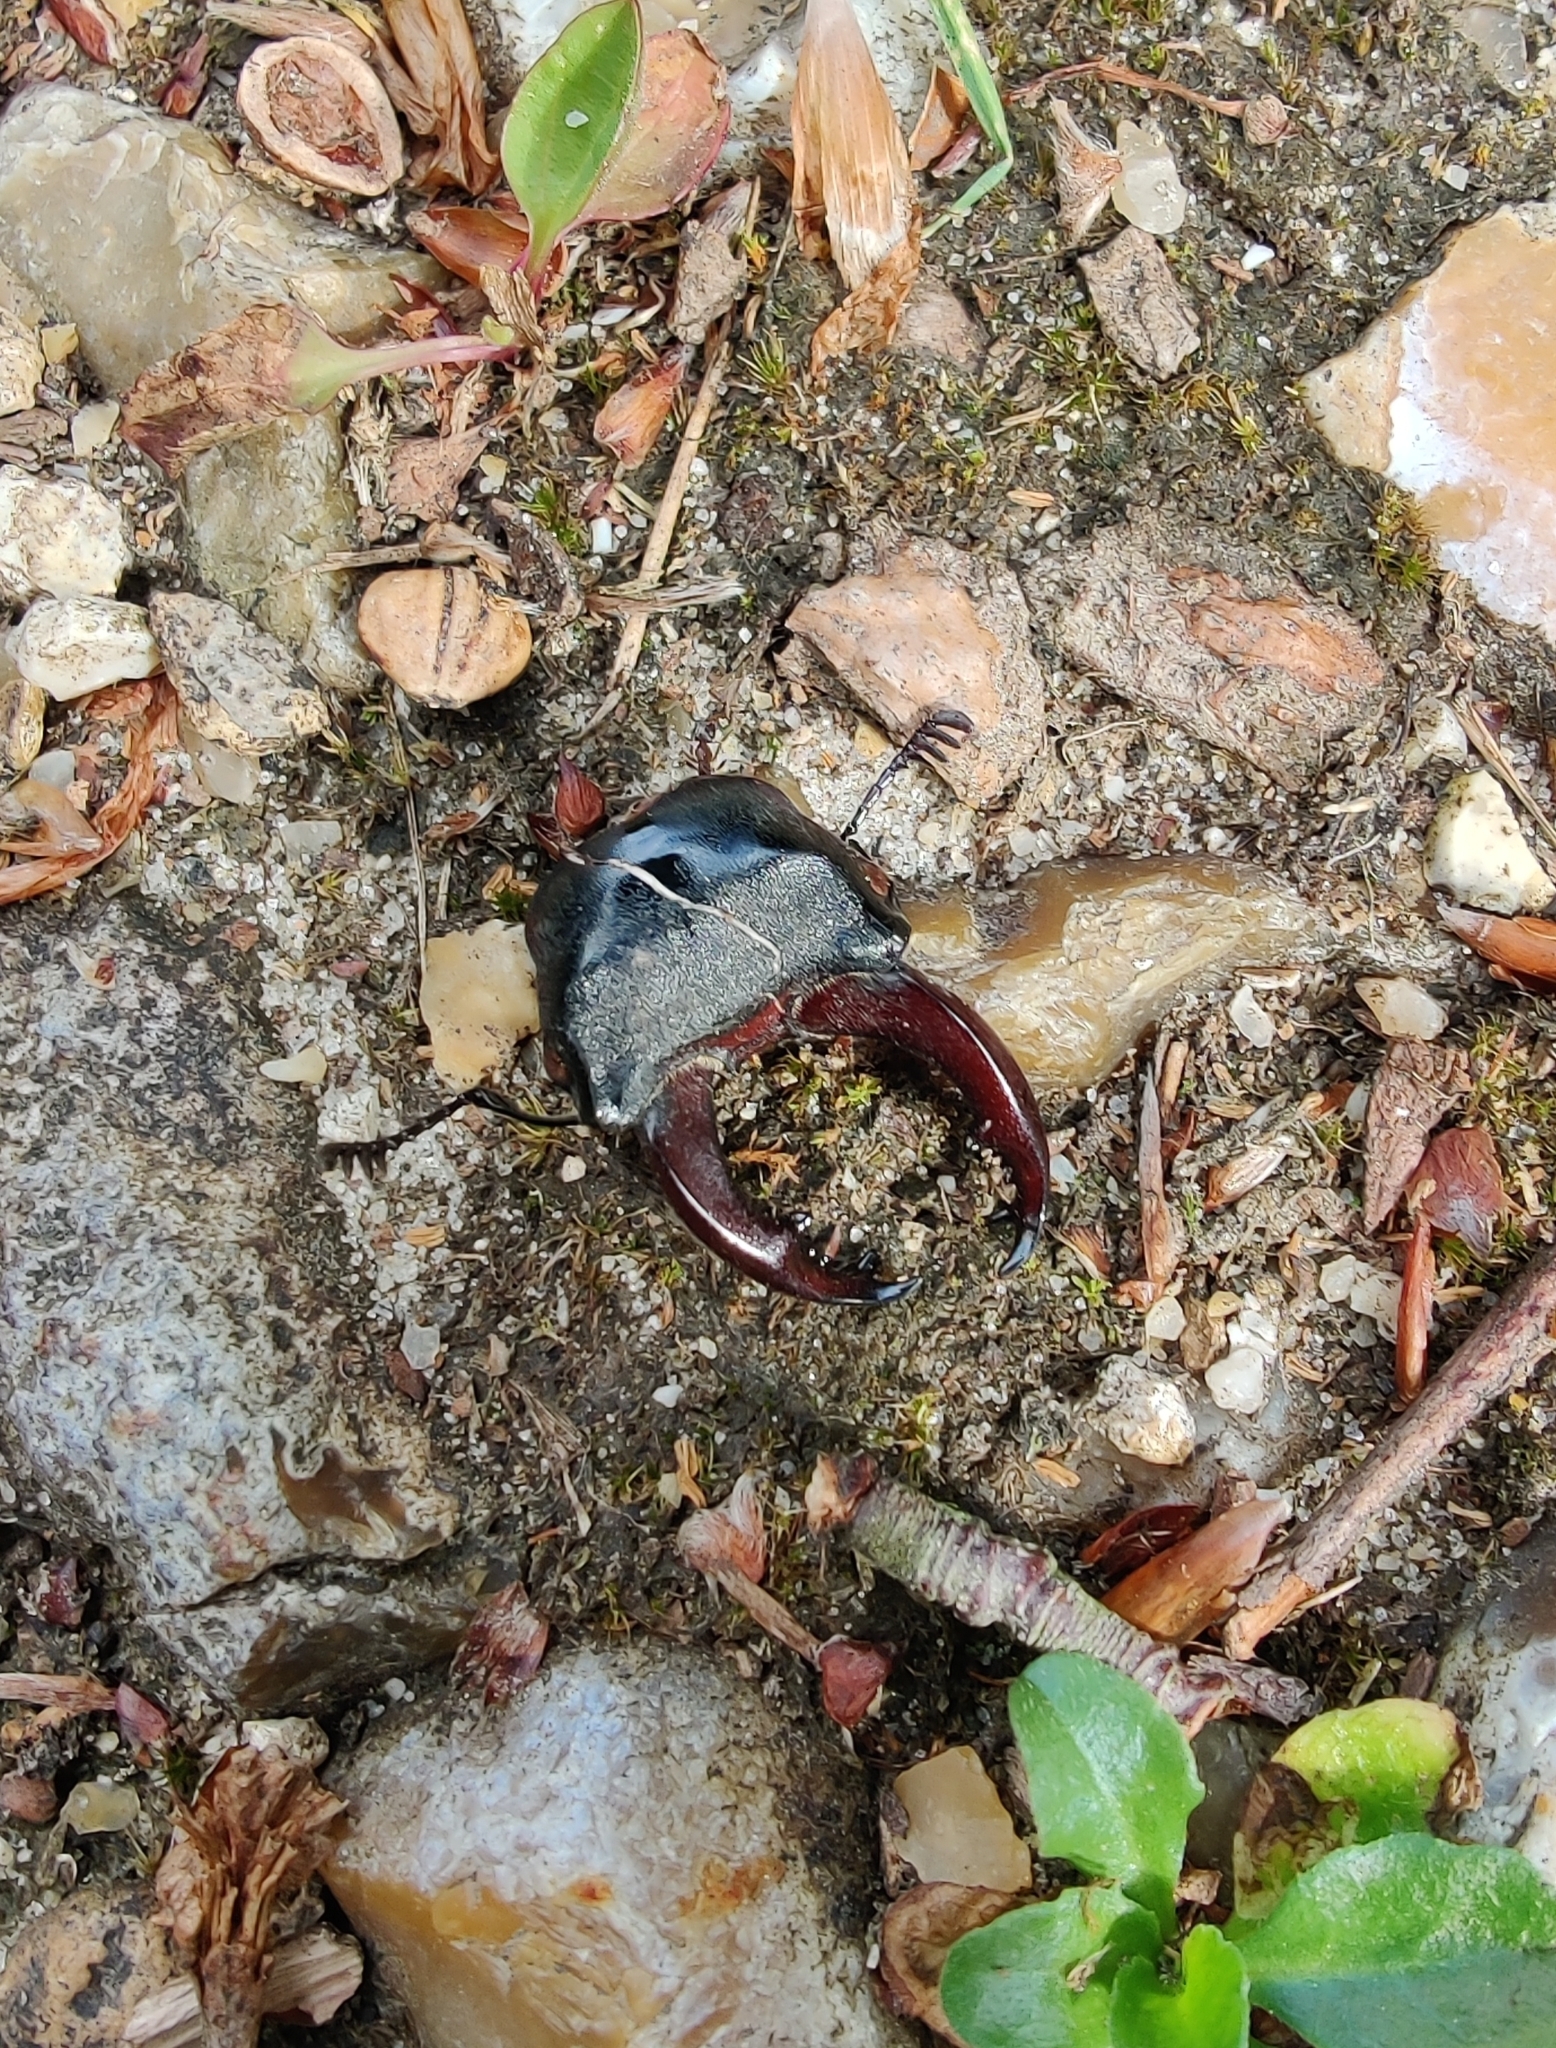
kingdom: Animalia
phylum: Arthropoda
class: Insecta
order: Coleoptera
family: Lucanidae
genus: Lucanus
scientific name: Lucanus cervus
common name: Stag beetle
